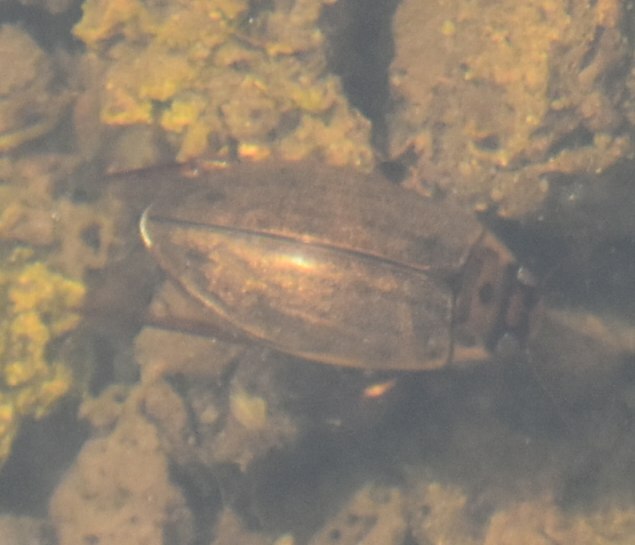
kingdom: Animalia
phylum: Arthropoda
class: Insecta
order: Coleoptera
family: Dytiscidae
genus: Rhantus
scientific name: Rhantus suturalis
